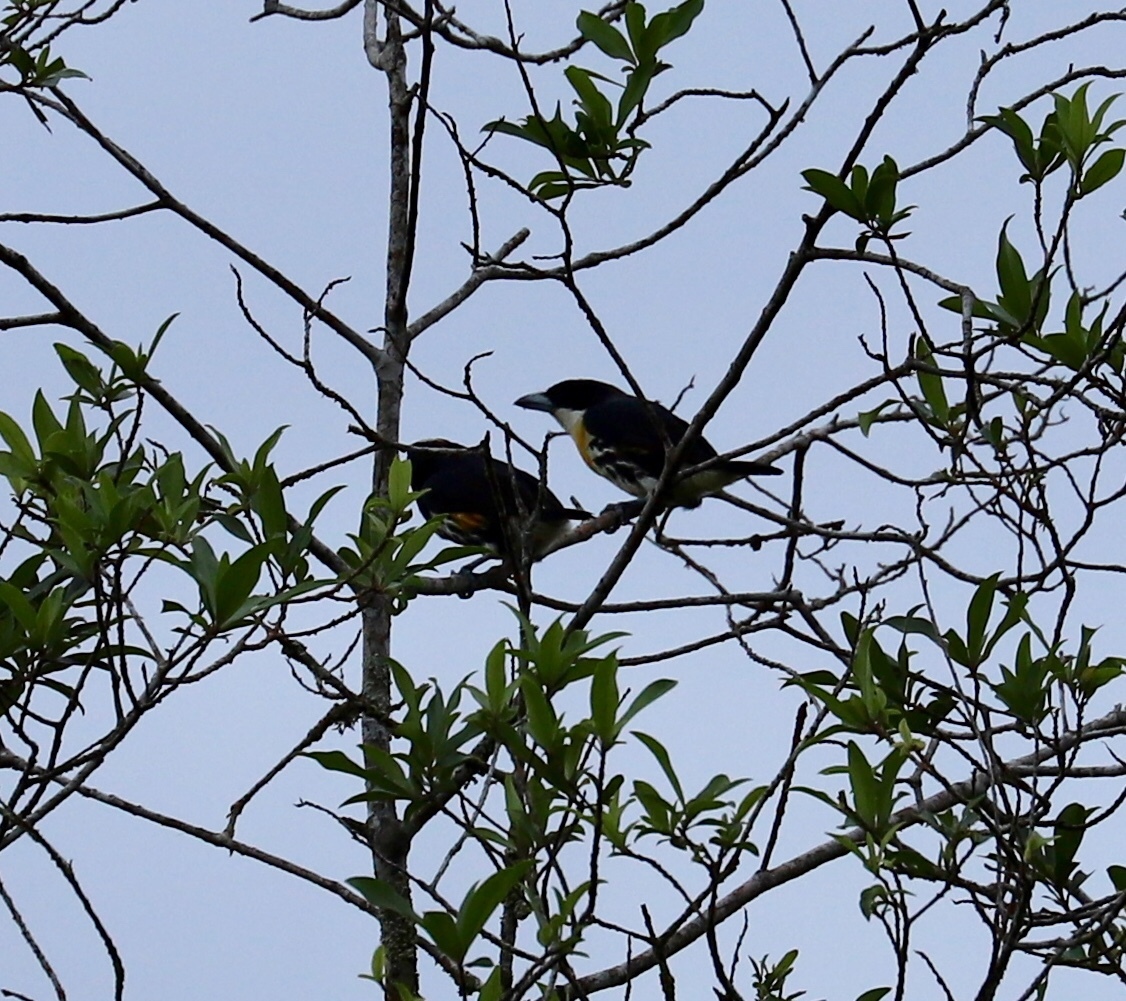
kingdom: Animalia
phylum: Chordata
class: Aves
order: Piciformes
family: Capitonidae
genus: Capito
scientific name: Capito maculicoronatus
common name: Spot-crowned barbet
